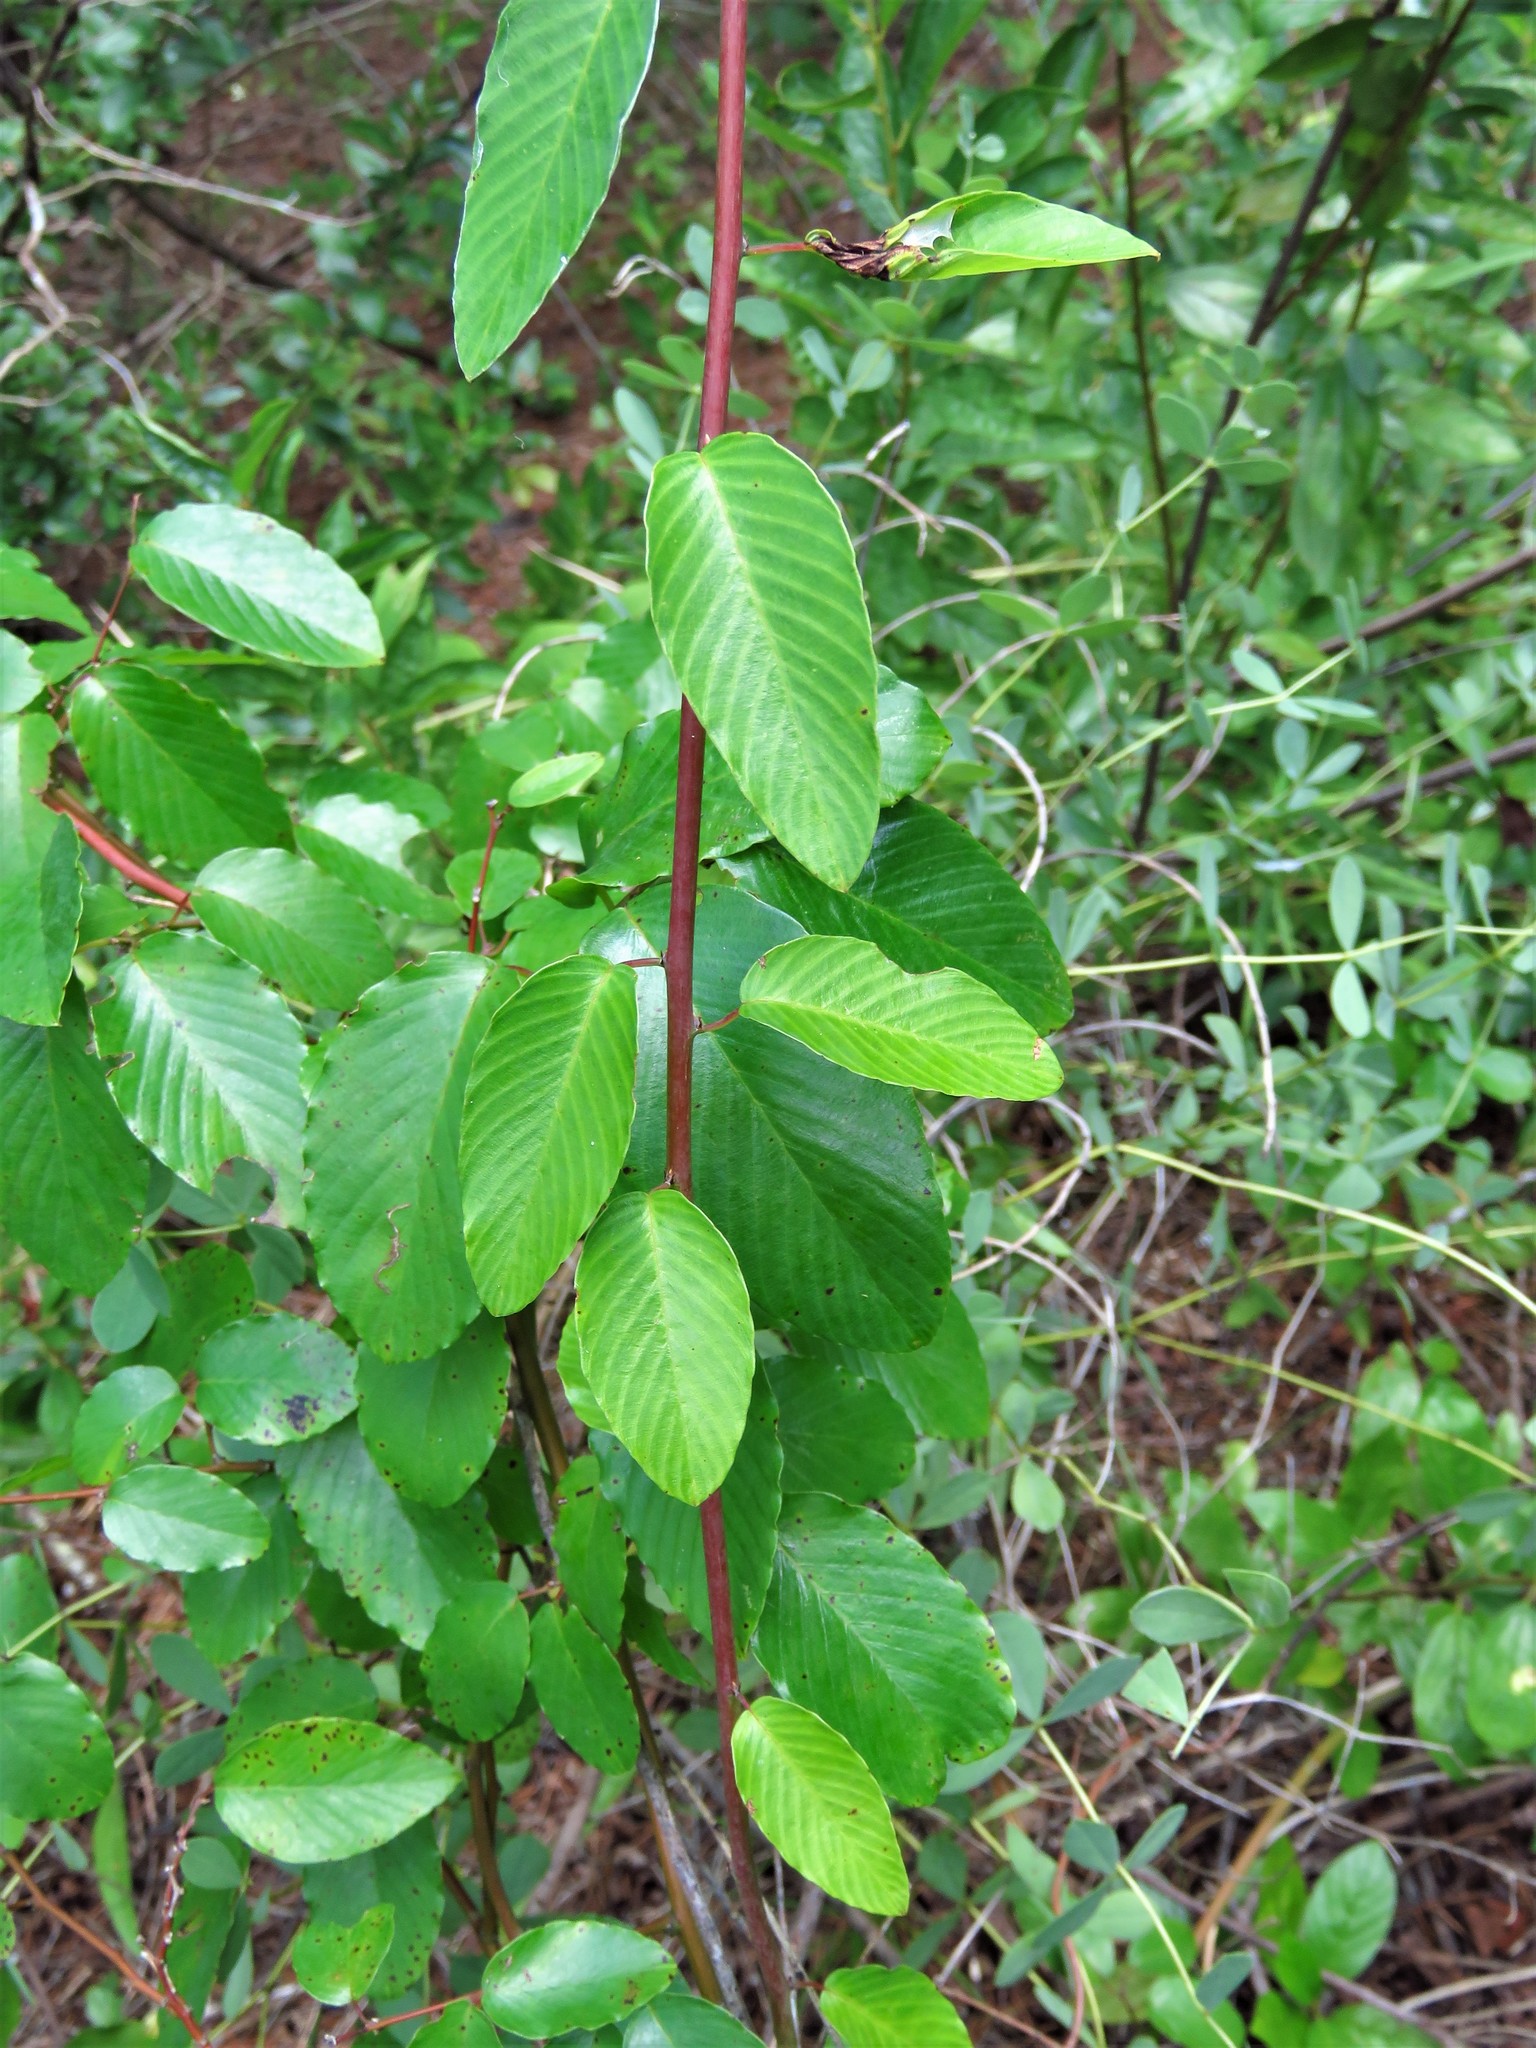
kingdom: Plantae
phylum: Tracheophyta
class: Magnoliopsida
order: Rosales
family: Rhamnaceae
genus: Berchemia
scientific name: Berchemia scandens
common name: Supplejack
